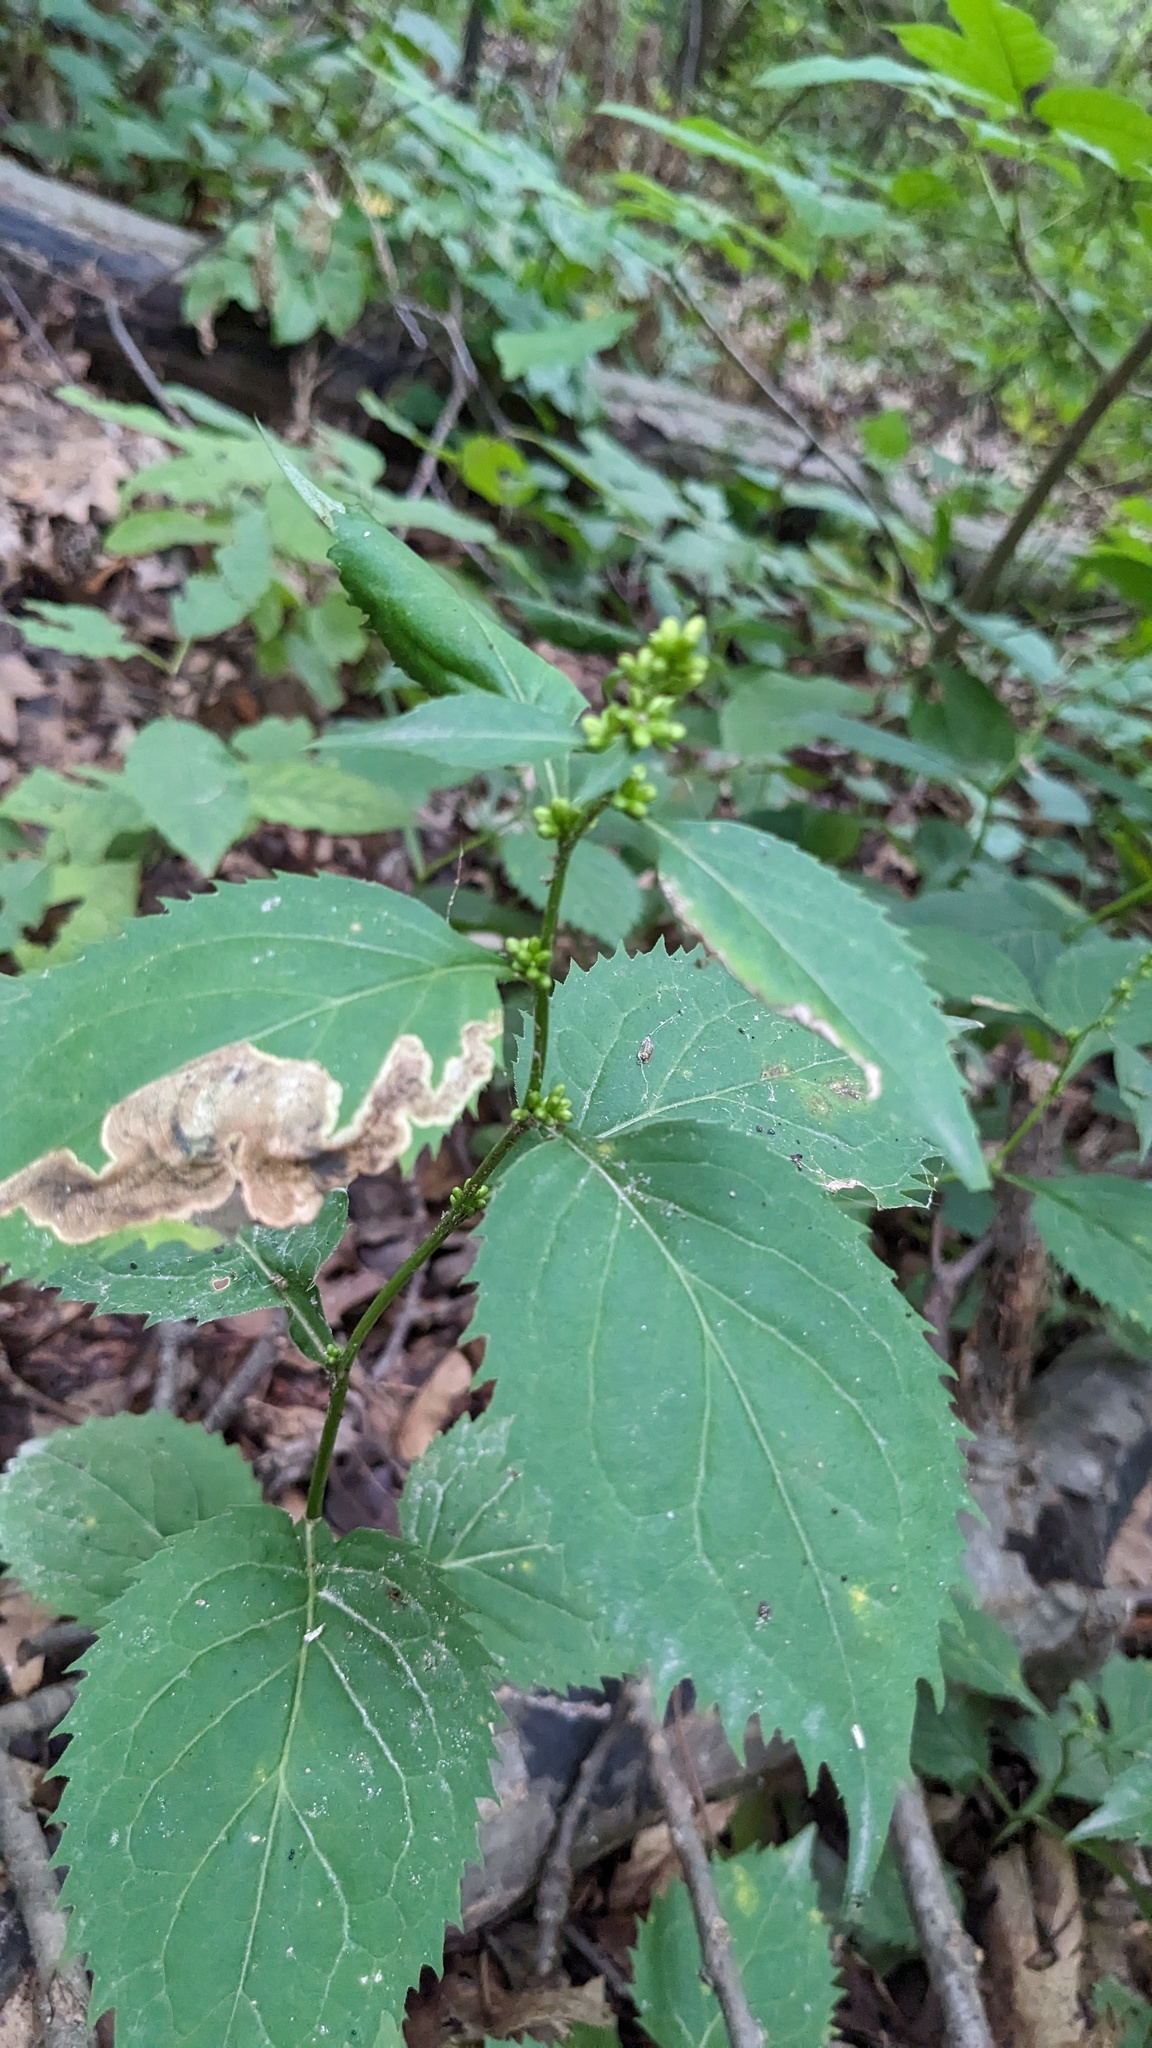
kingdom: Plantae
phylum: Tracheophyta
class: Magnoliopsida
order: Asterales
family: Asteraceae
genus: Solidago
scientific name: Solidago flexicaulis
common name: Zig-zag goldenrod
